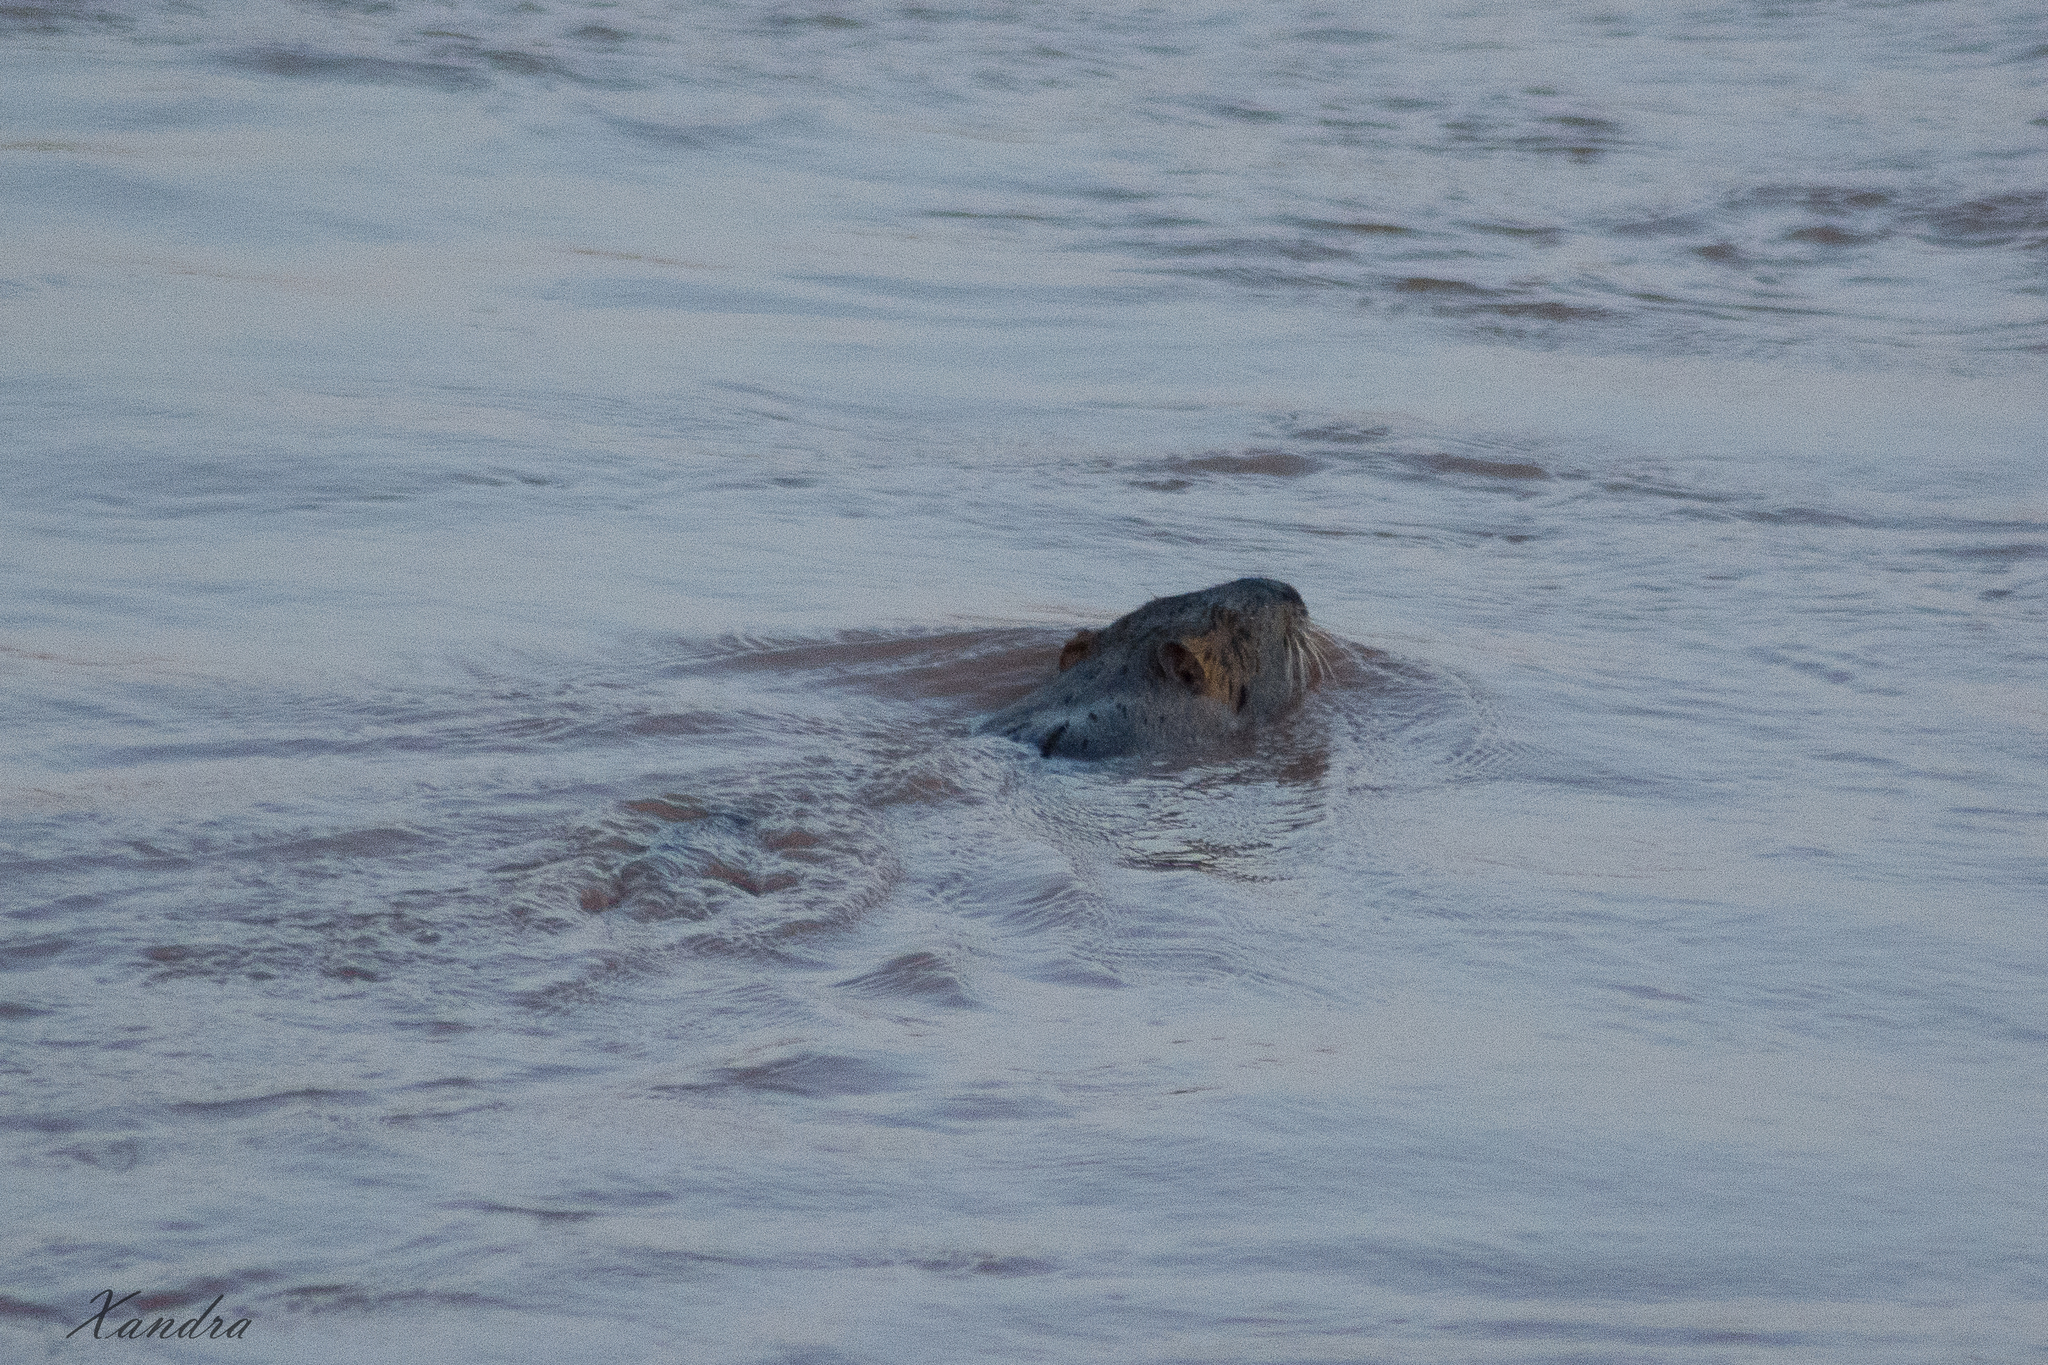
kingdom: Animalia
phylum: Chordata
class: Mammalia
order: Rodentia
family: Myocastoridae
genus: Myocastor
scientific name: Myocastor coypus
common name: Coypu
